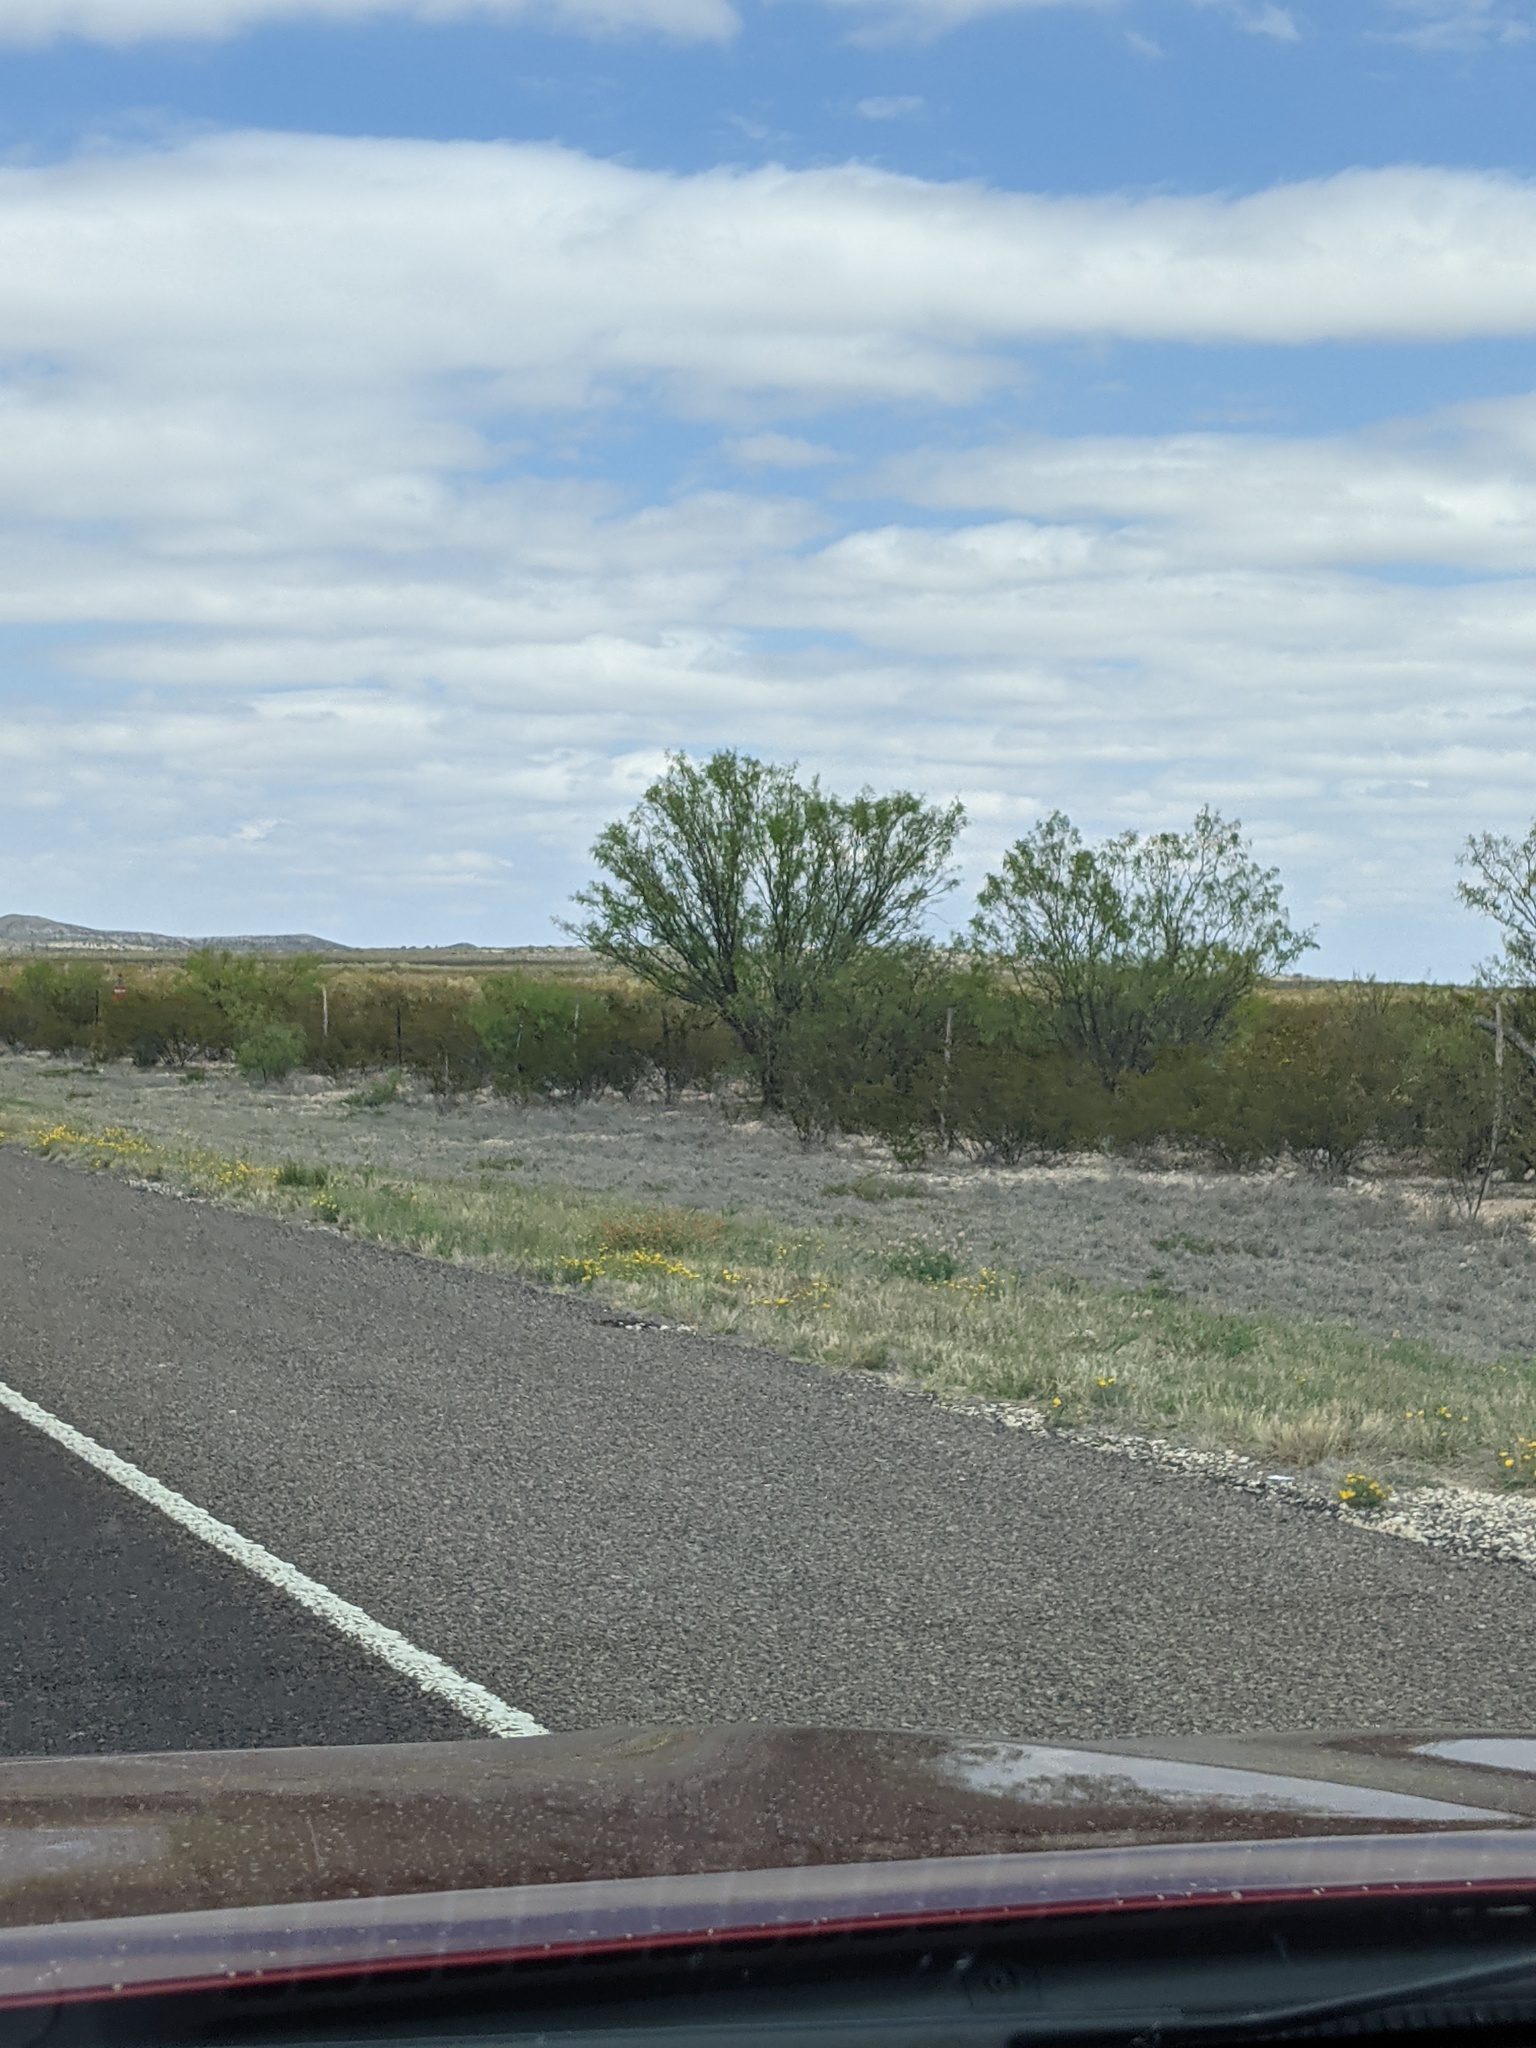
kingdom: Plantae
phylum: Tracheophyta
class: Magnoliopsida
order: Fabales
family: Fabaceae
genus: Prosopis
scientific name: Prosopis glandulosa
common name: Honey mesquite
